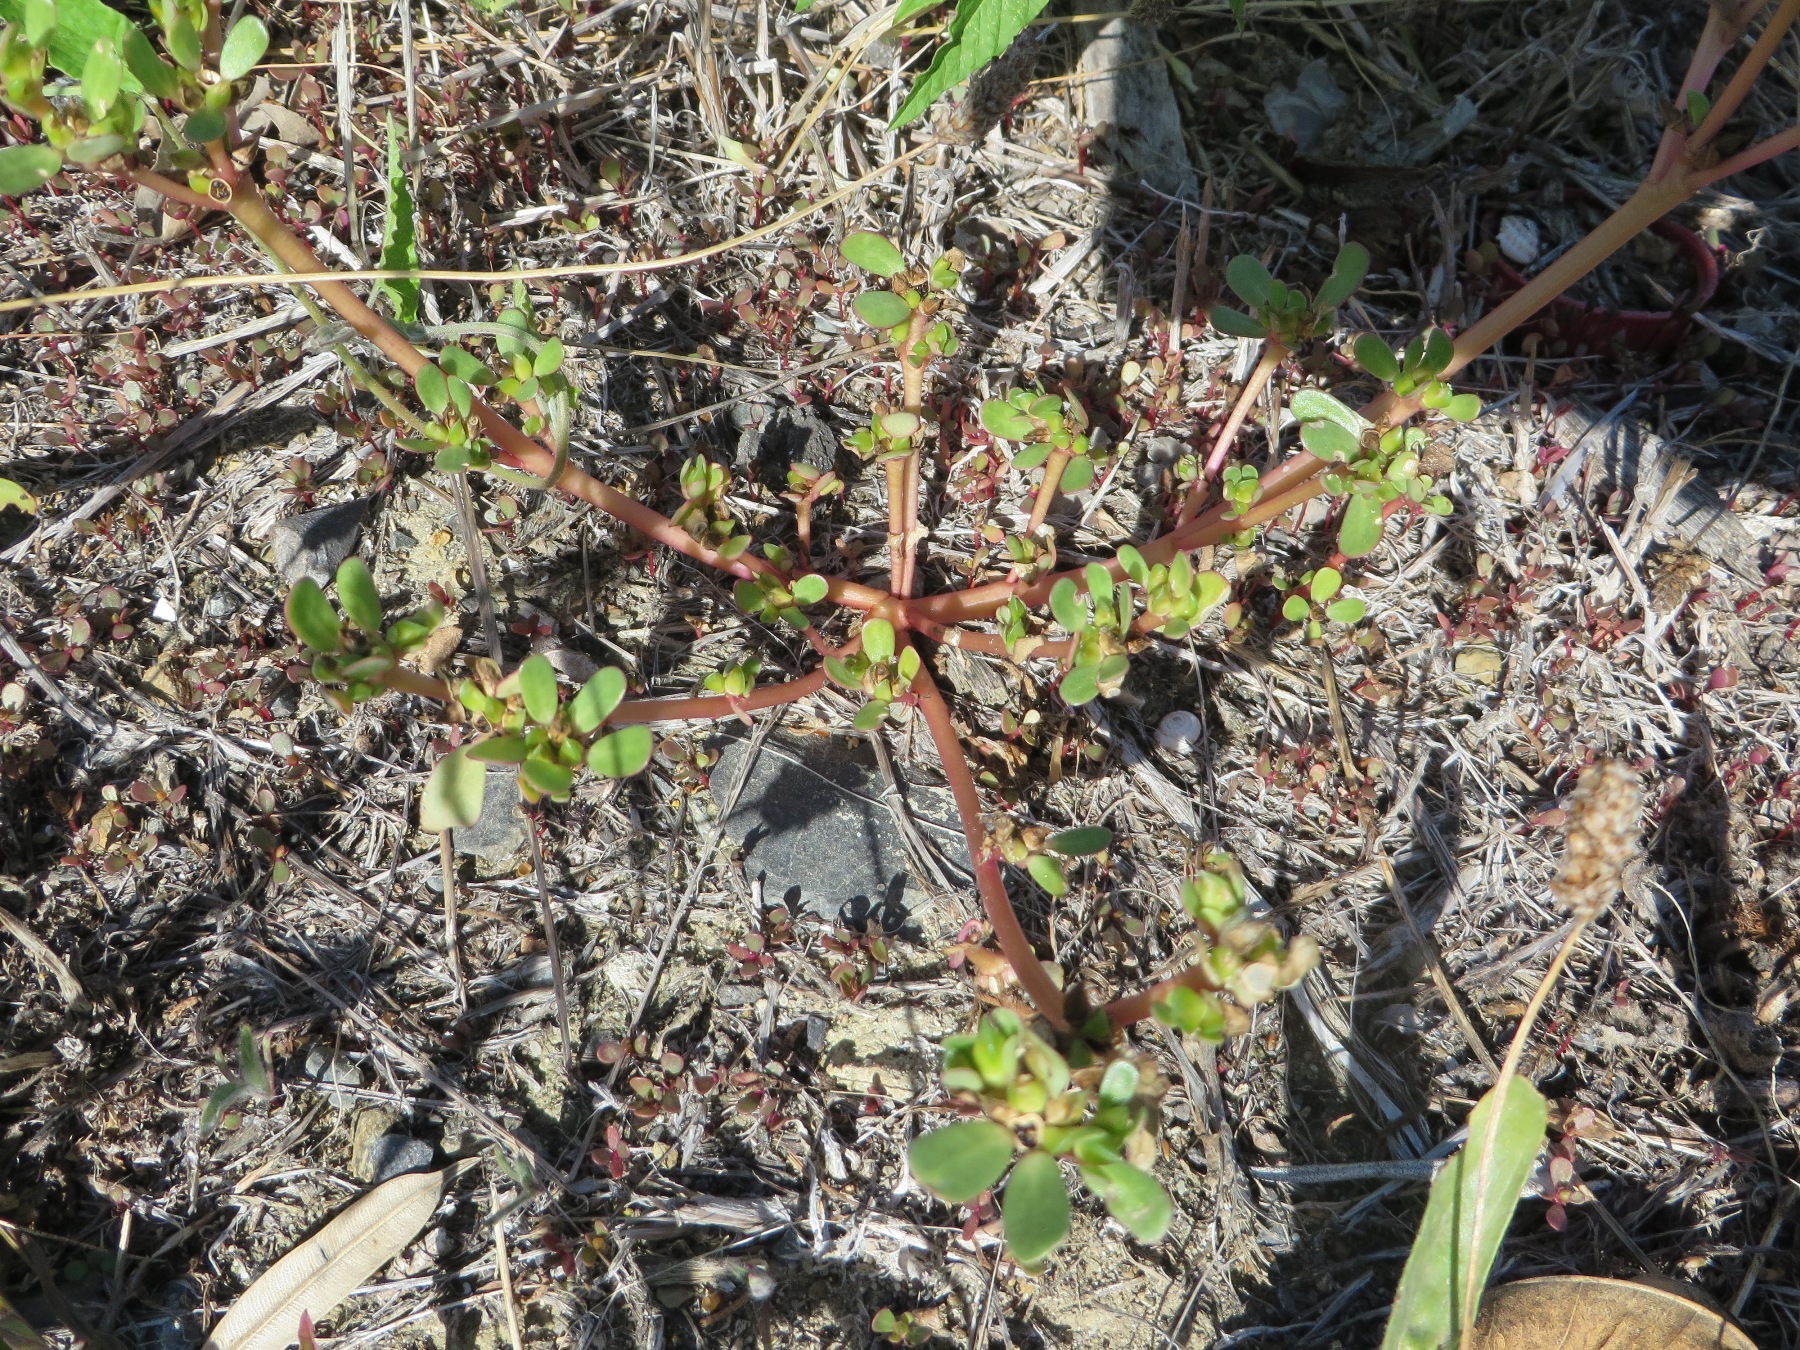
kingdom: Plantae
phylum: Tracheophyta
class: Magnoliopsida
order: Caryophyllales
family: Portulacaceae
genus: Portulaca
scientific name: Portulaca oleracea
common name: Common purslane
